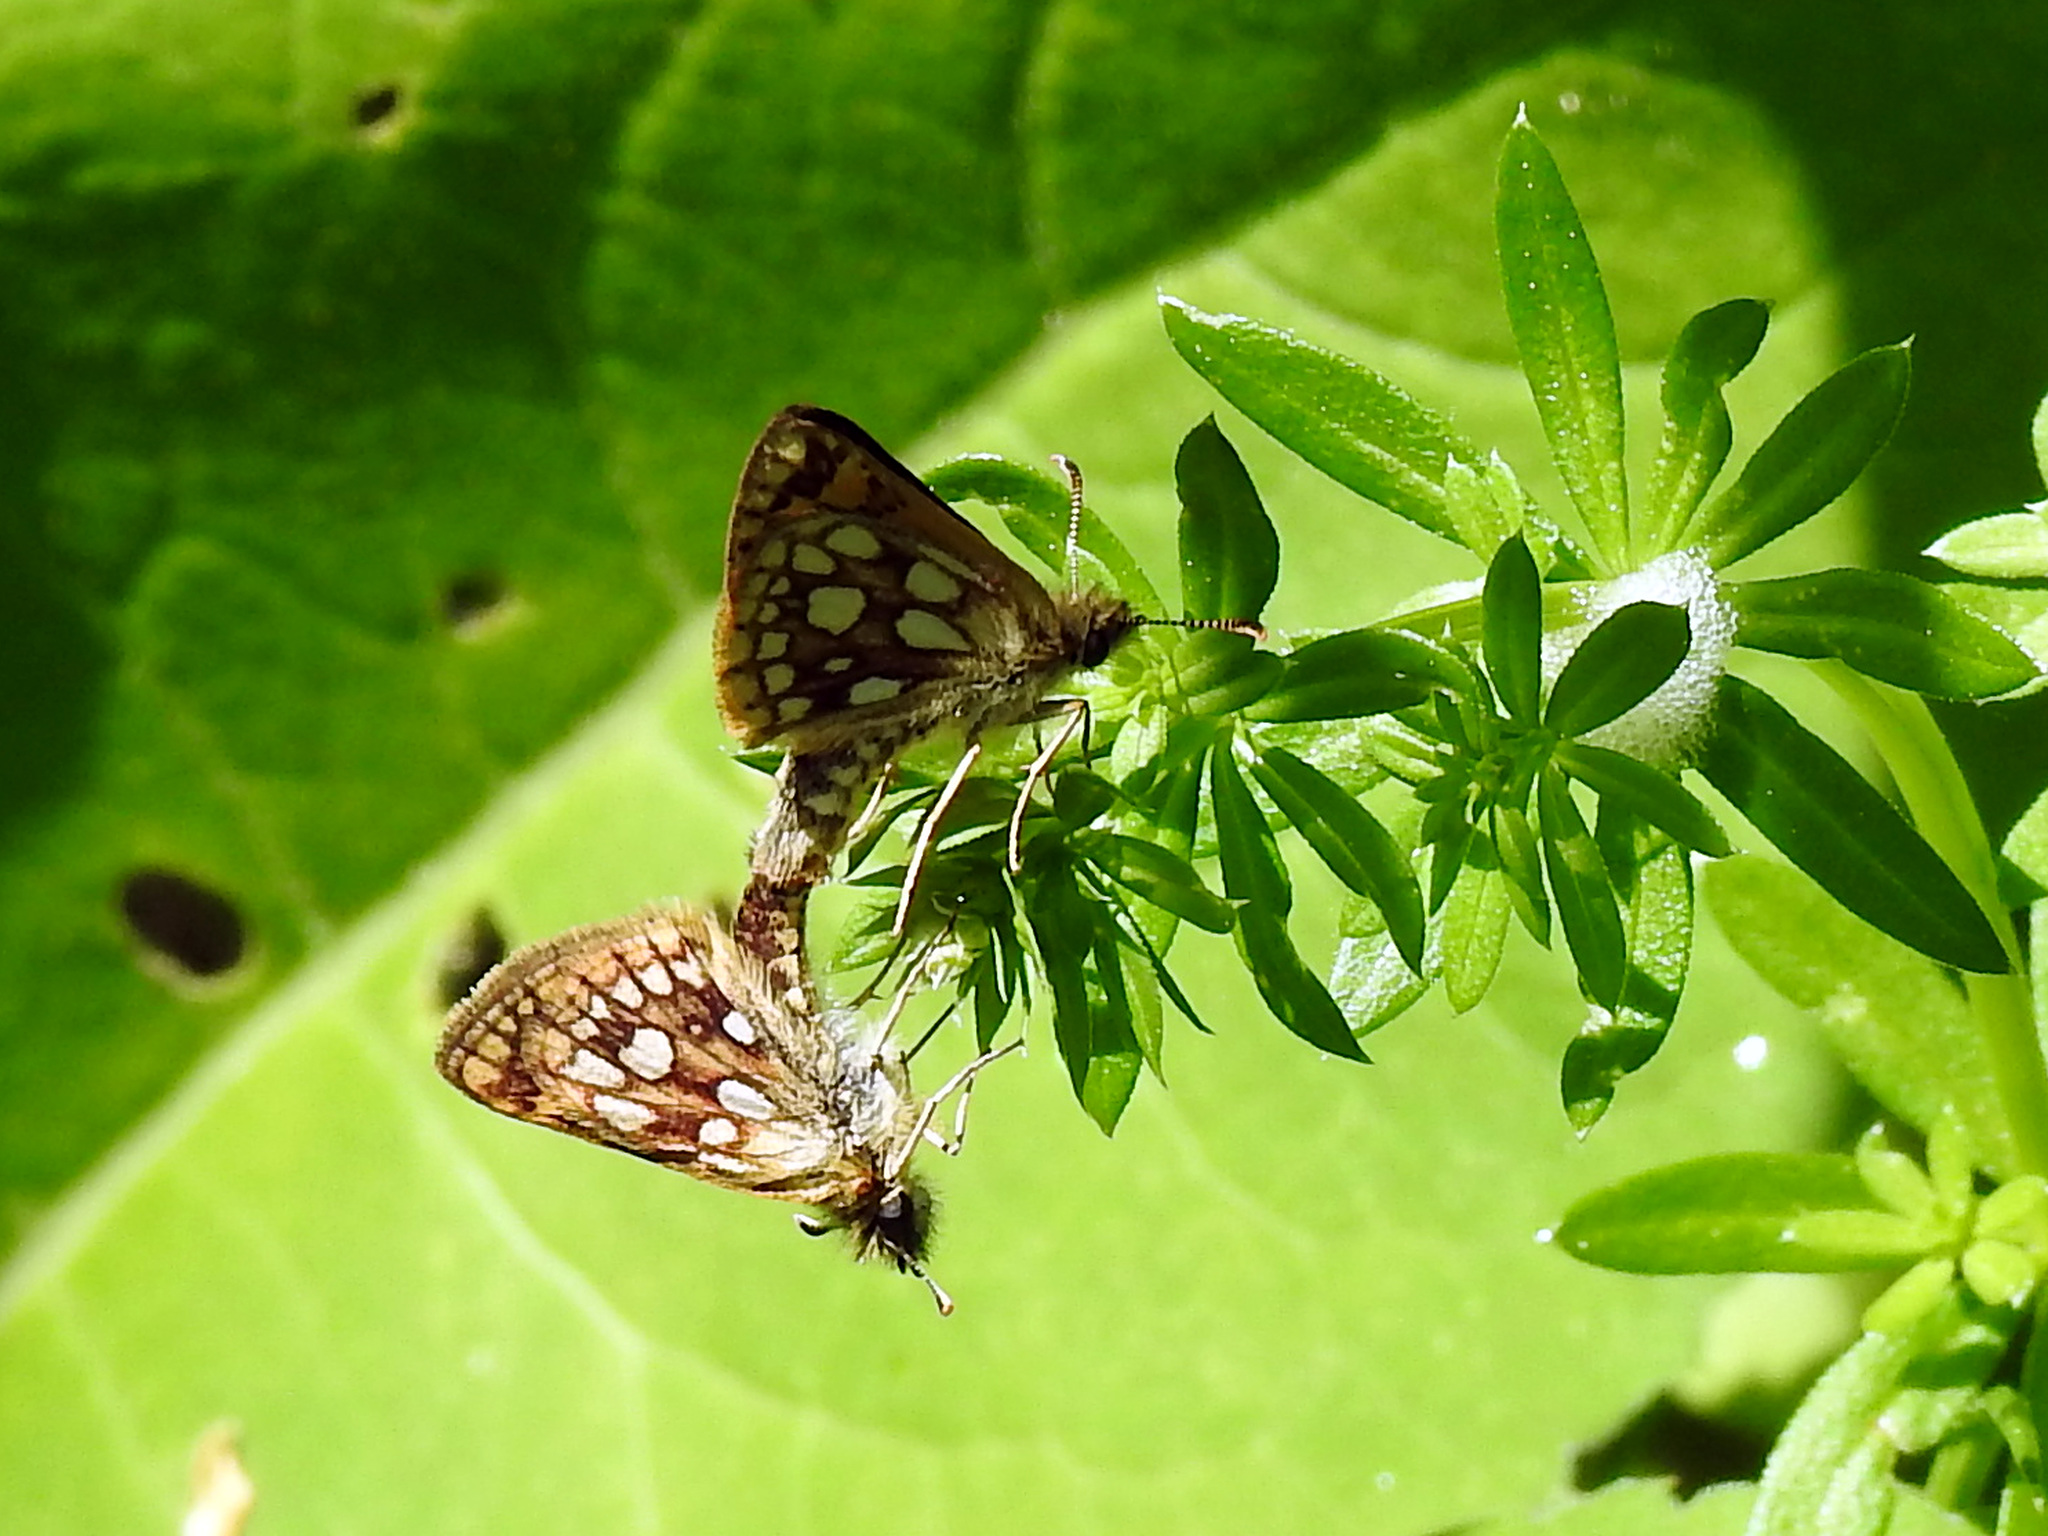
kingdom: Animalia
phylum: Arthropoda
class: Insecta
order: Lepidoptera
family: Hesperiidae
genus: Carterocephalus
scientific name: Carterocephalus mandan
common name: Arctic skipperling
